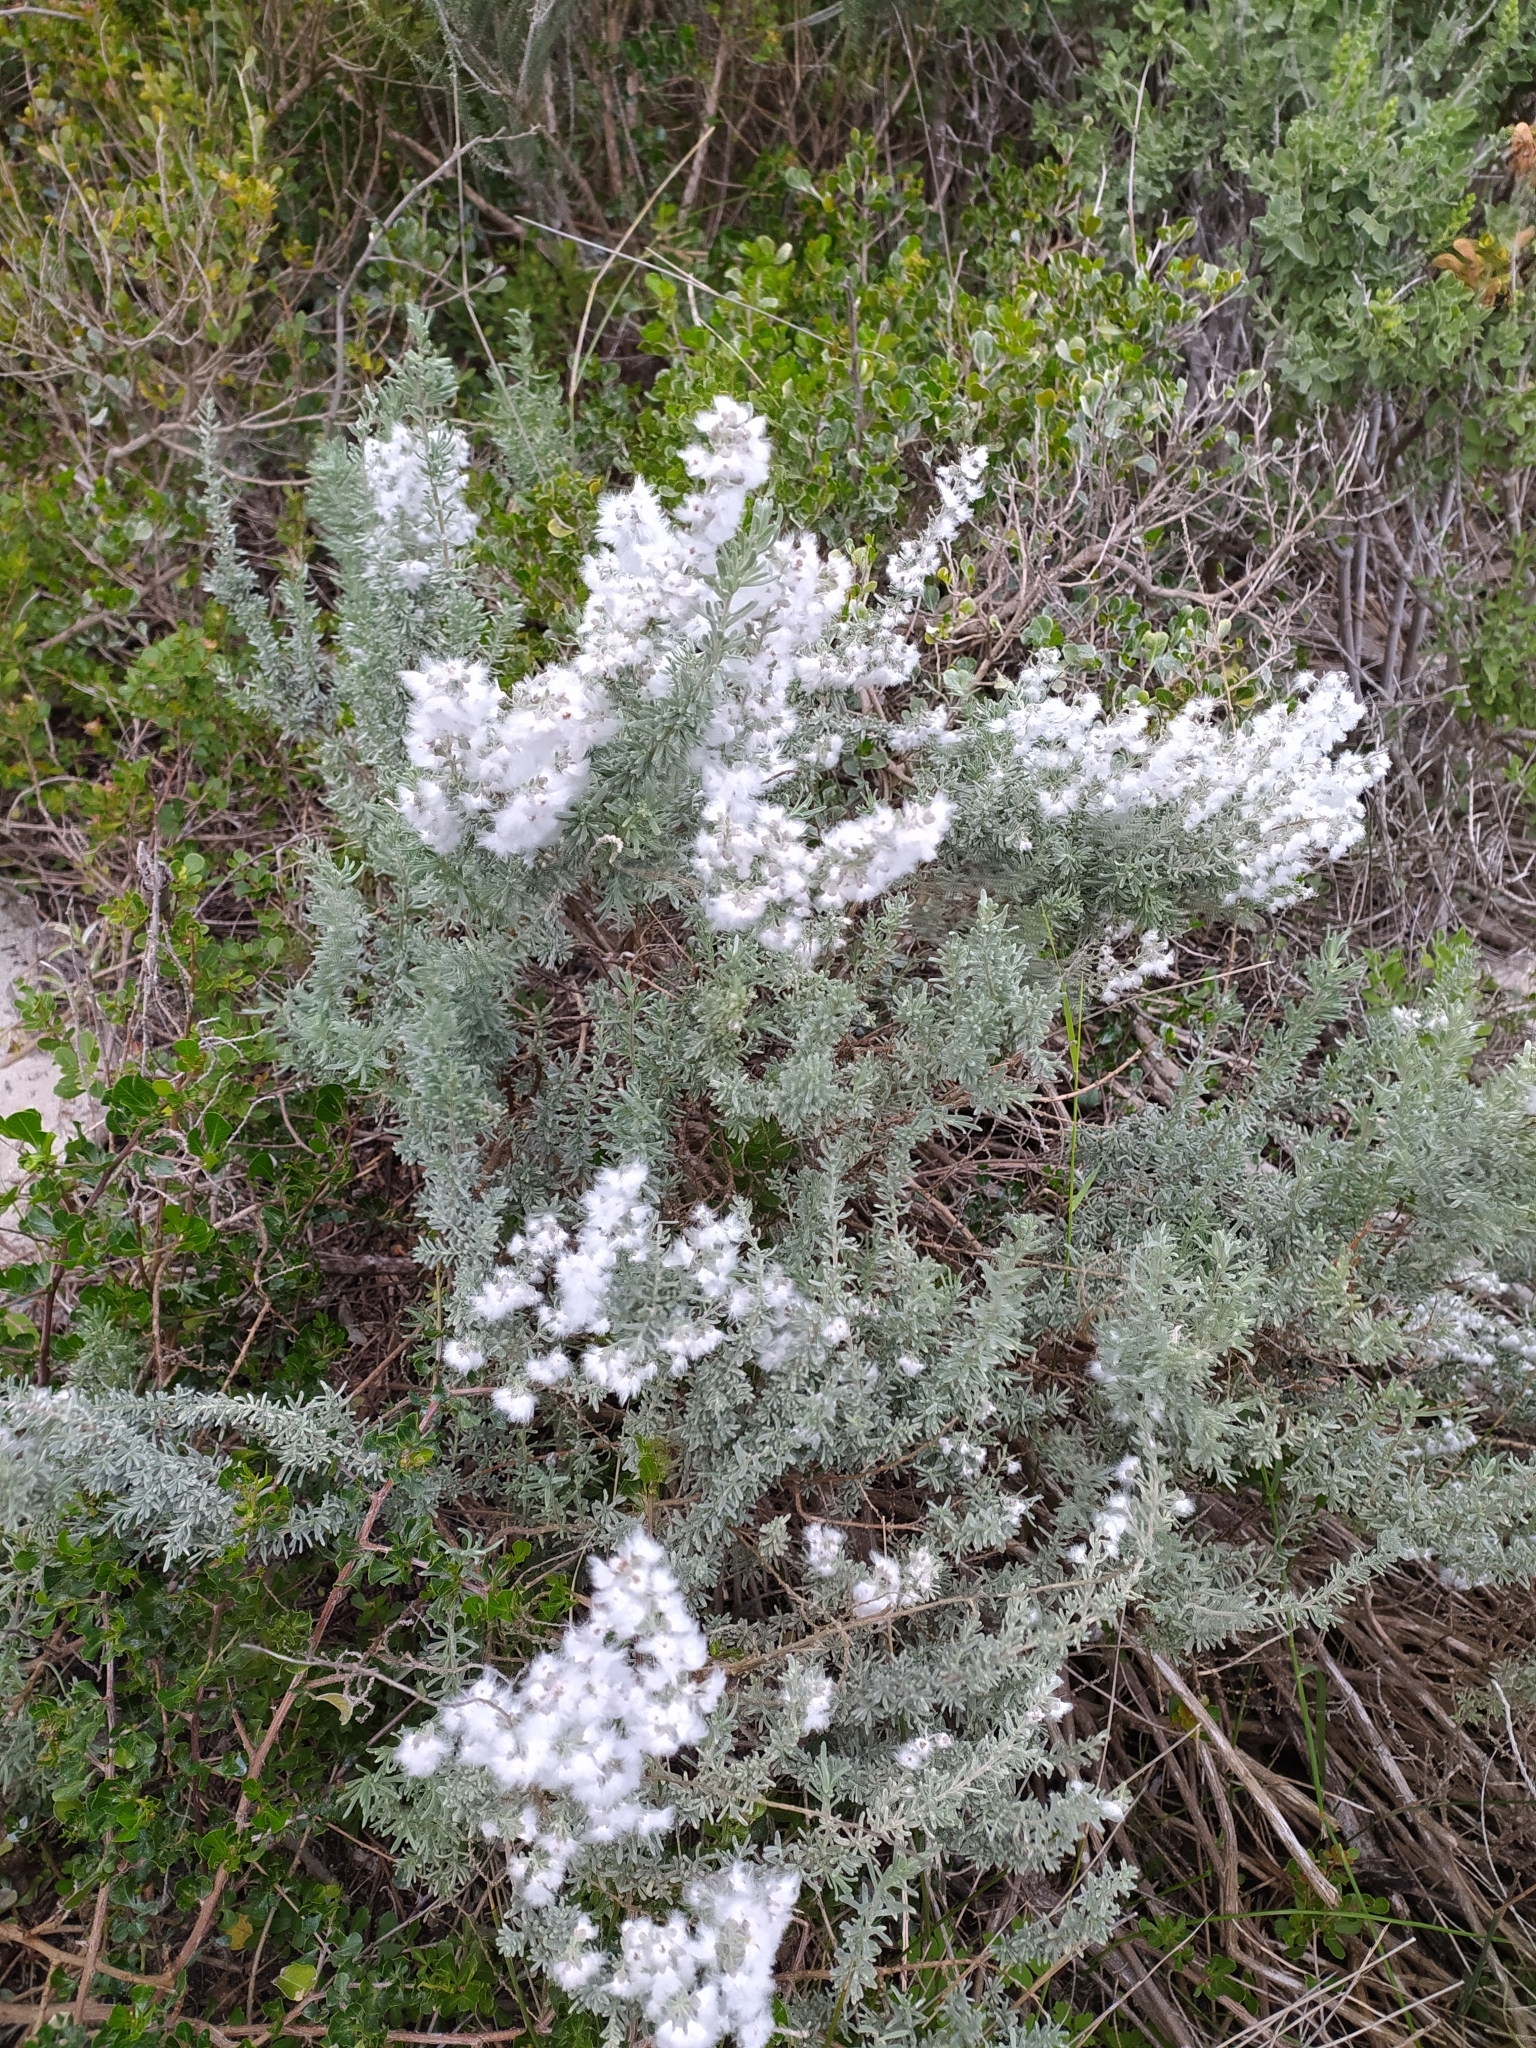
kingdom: Plantae
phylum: Tracheophyta
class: Magnoliopsida
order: Asterales
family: Asteraceae
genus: Eriocephalus
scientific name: Eriocephalus racemosus
